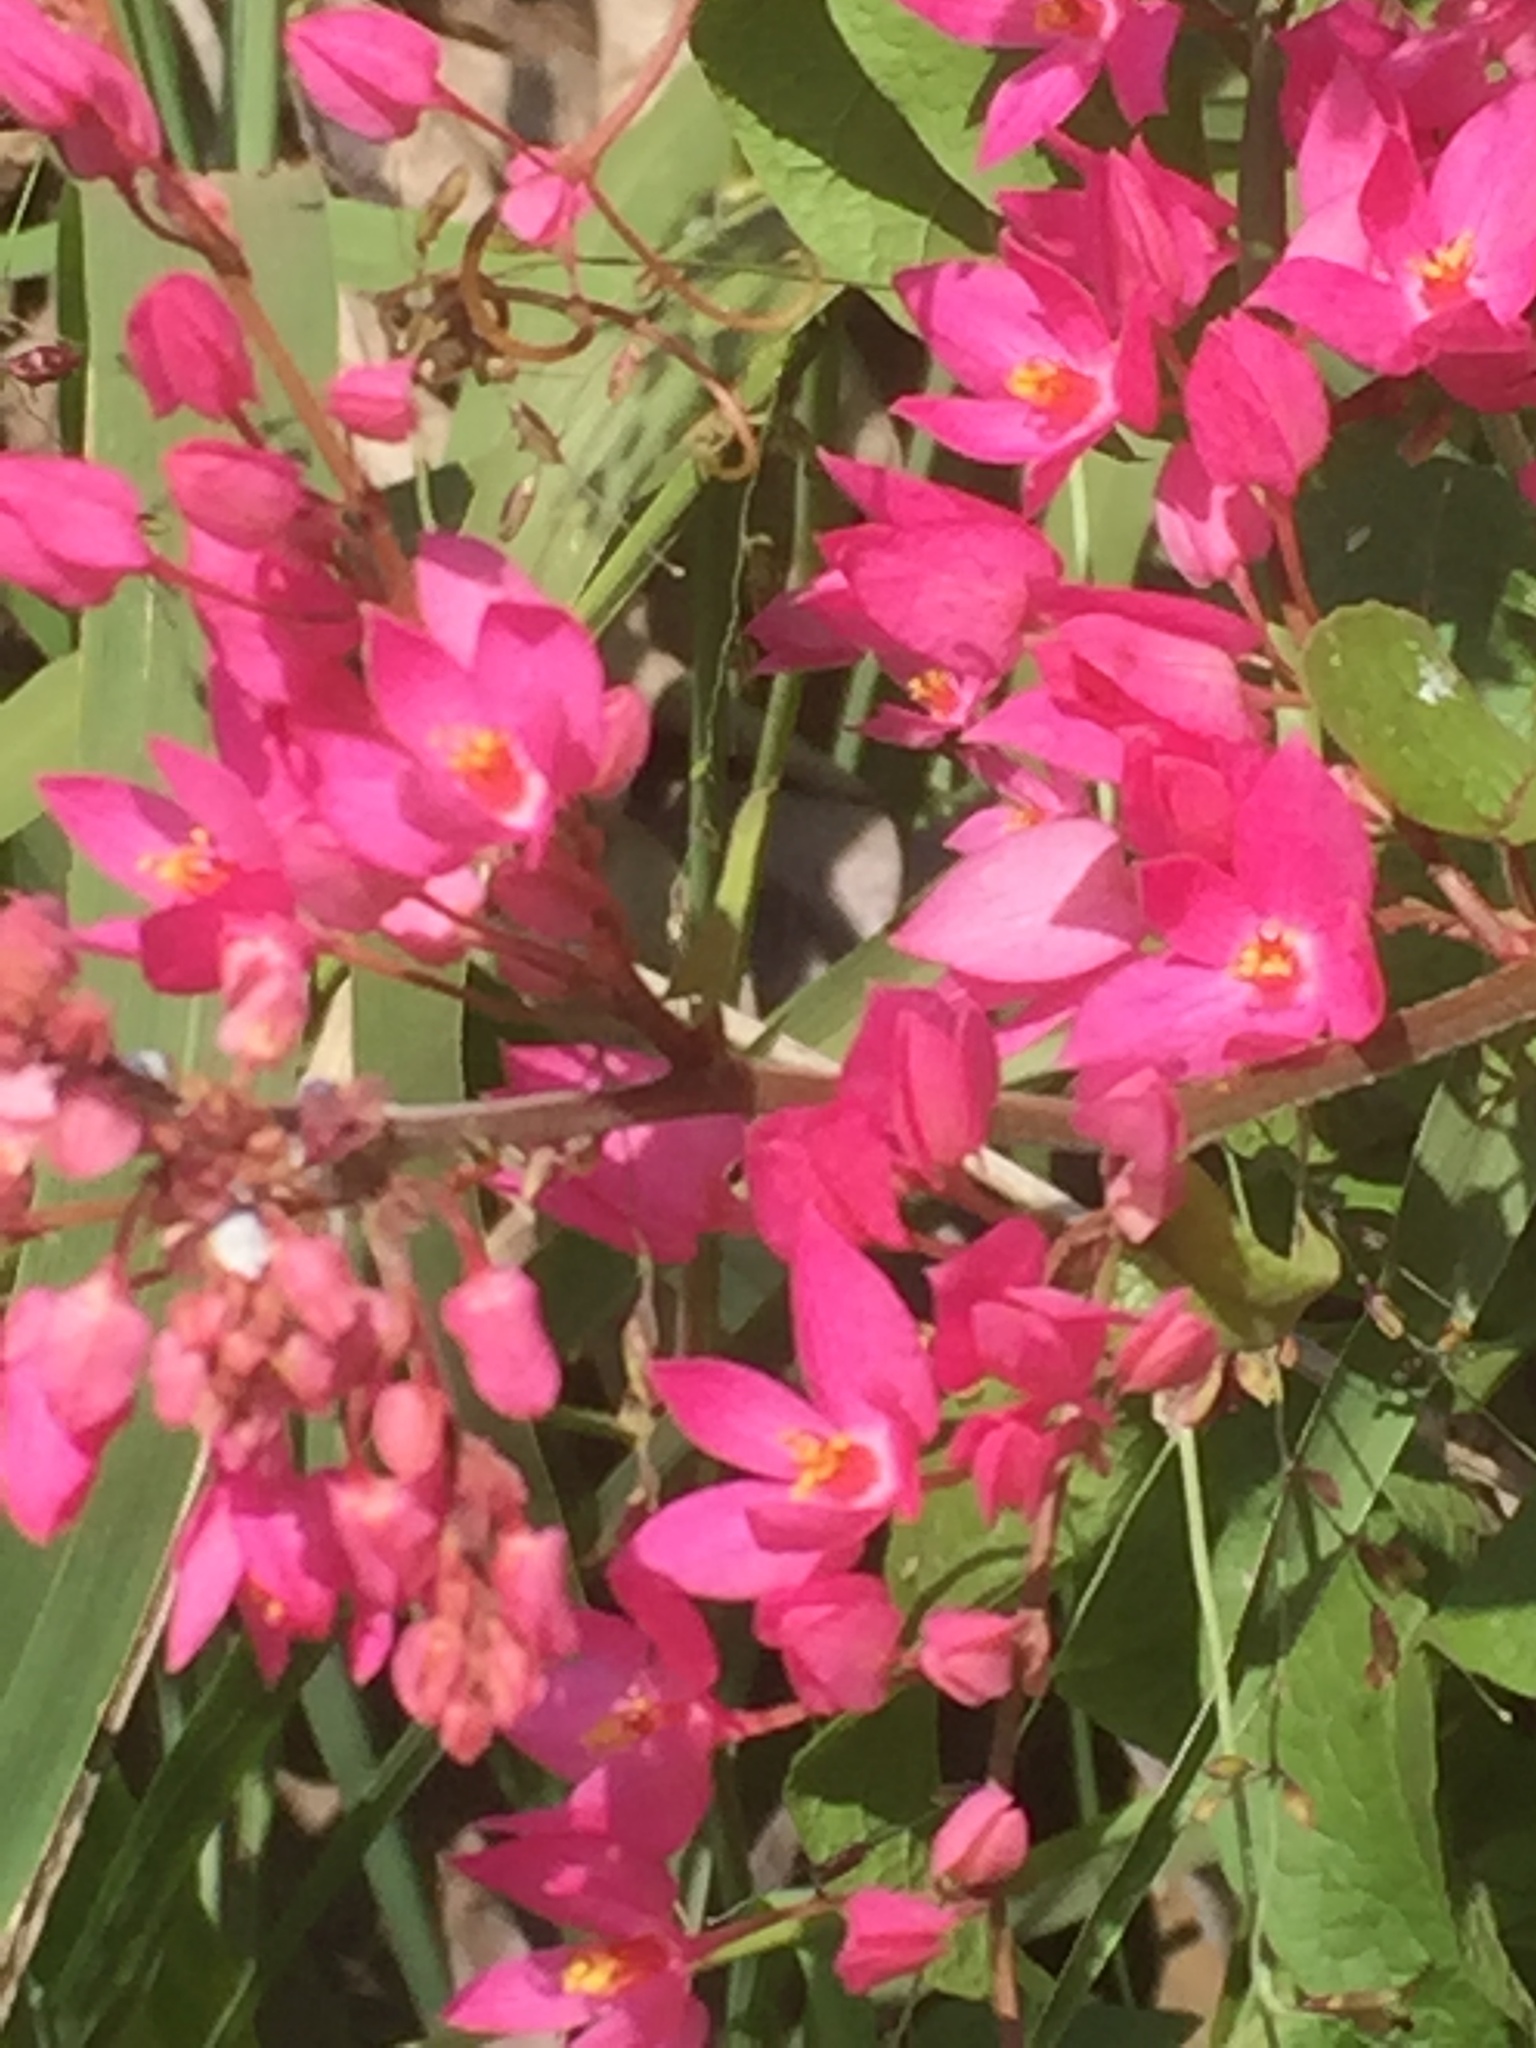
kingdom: Plantae
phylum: Tracheophyta
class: Magnoliopsida
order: Caryophyllales
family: Polygonaceae
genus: Antigonon
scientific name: Antigonon leptopus
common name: Coral vine
